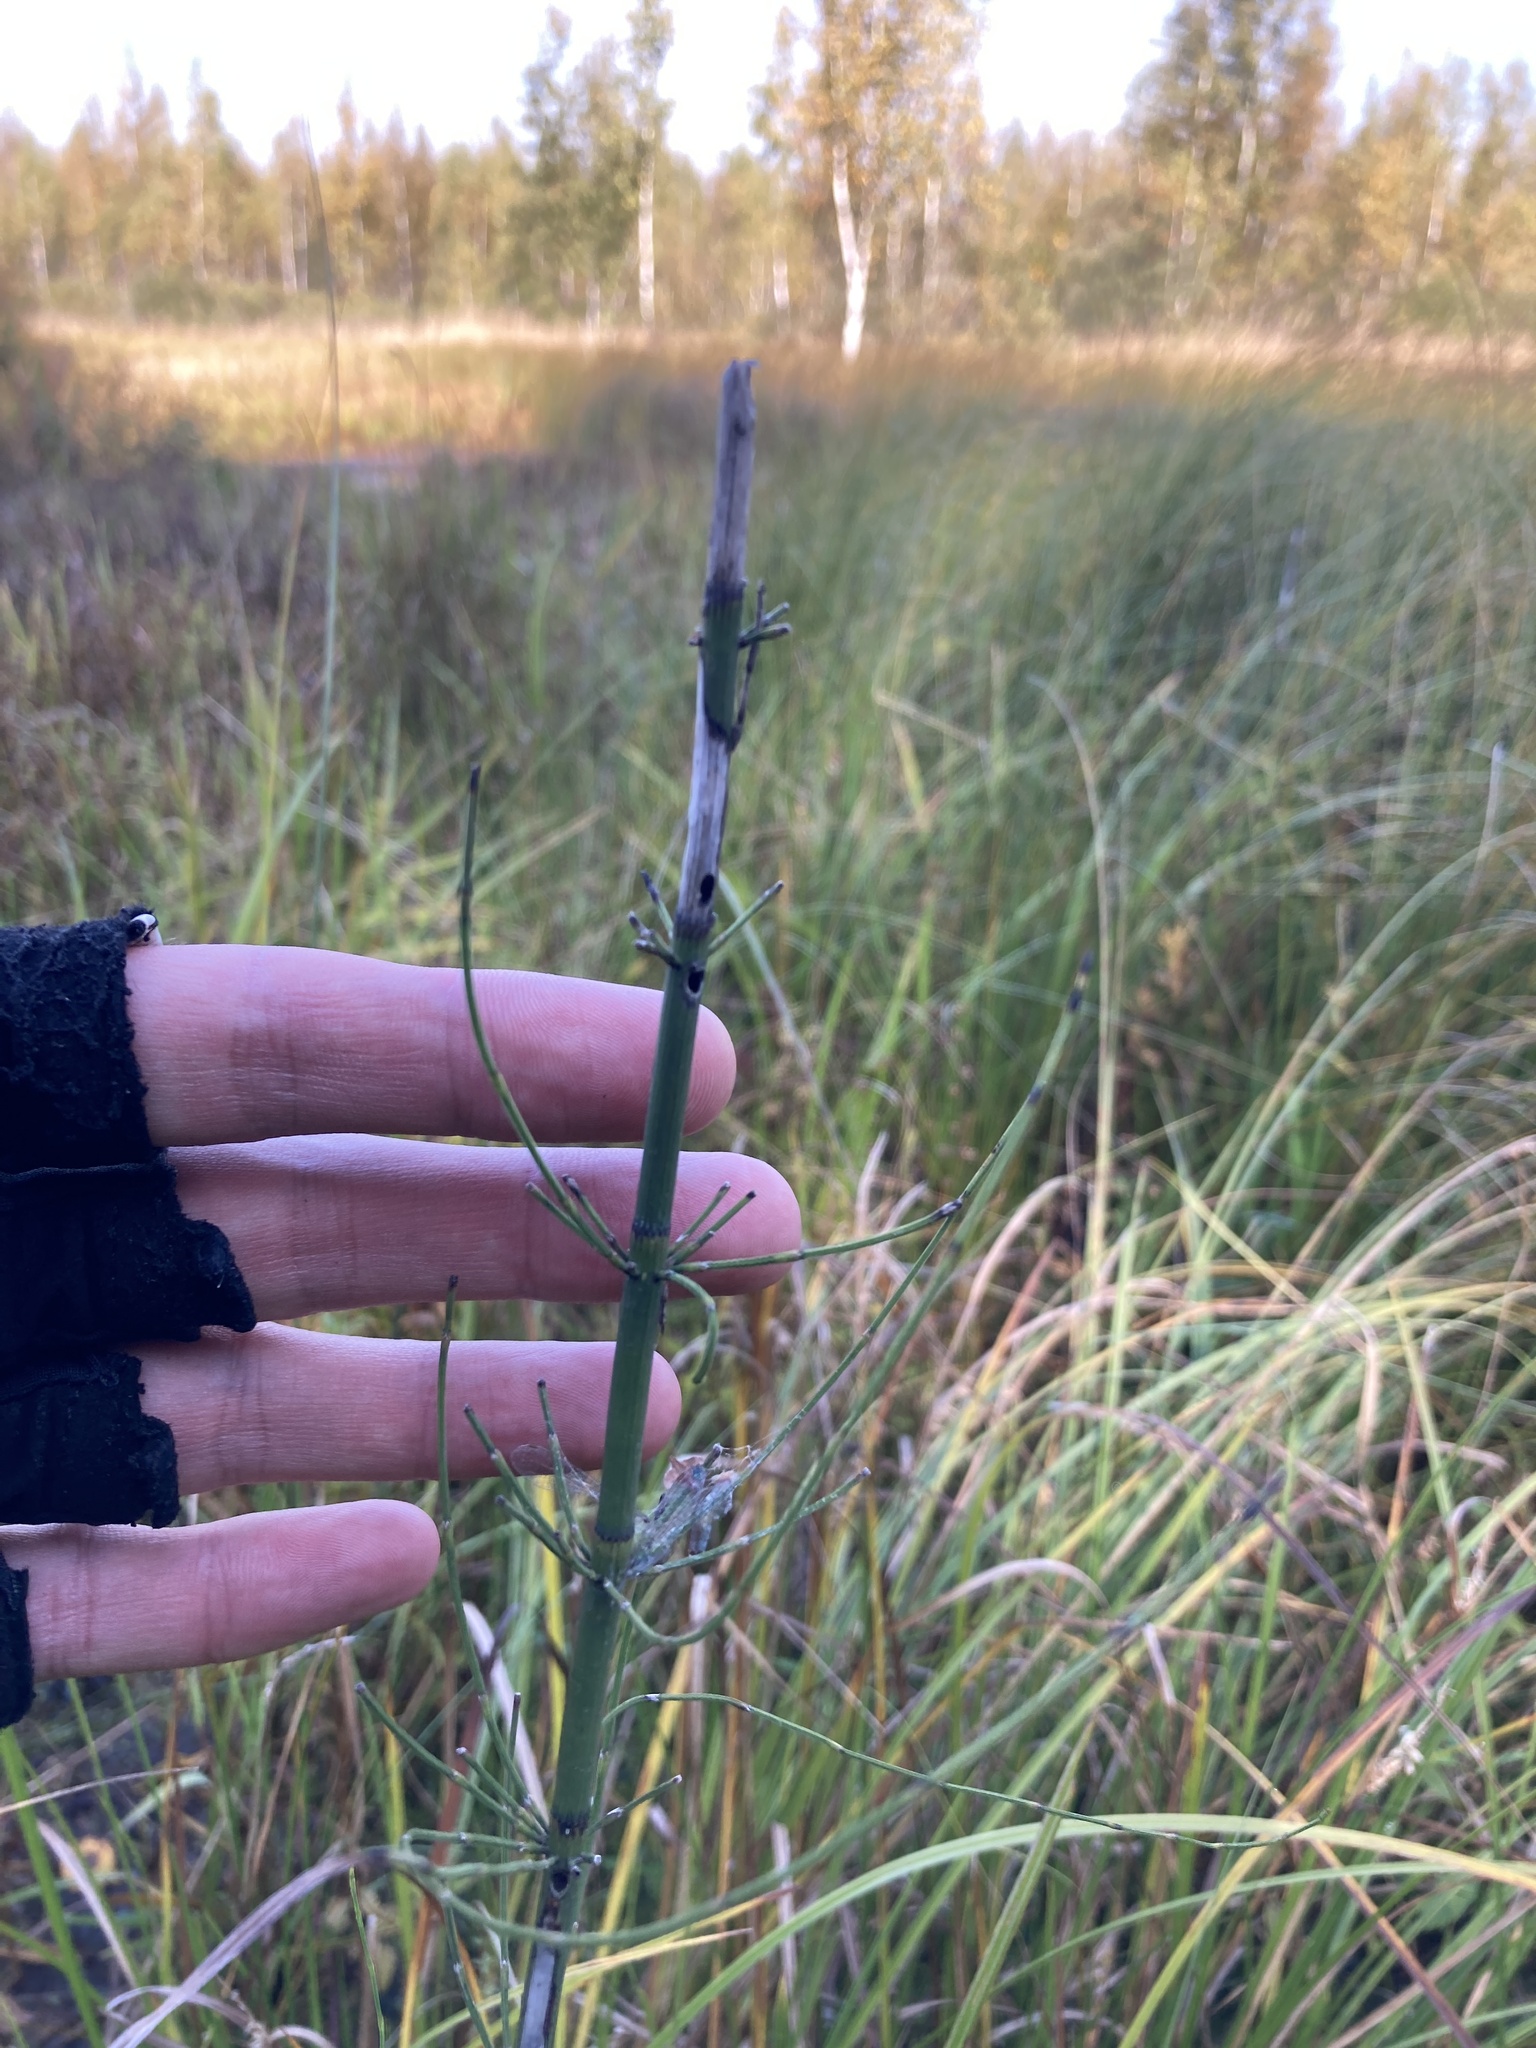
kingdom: Plantae
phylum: Tracheophyta
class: Polypodiopsida
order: Equisetales
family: Equisetaceae
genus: Equisetum
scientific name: Equisetum fluviatile
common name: Water horsetail
